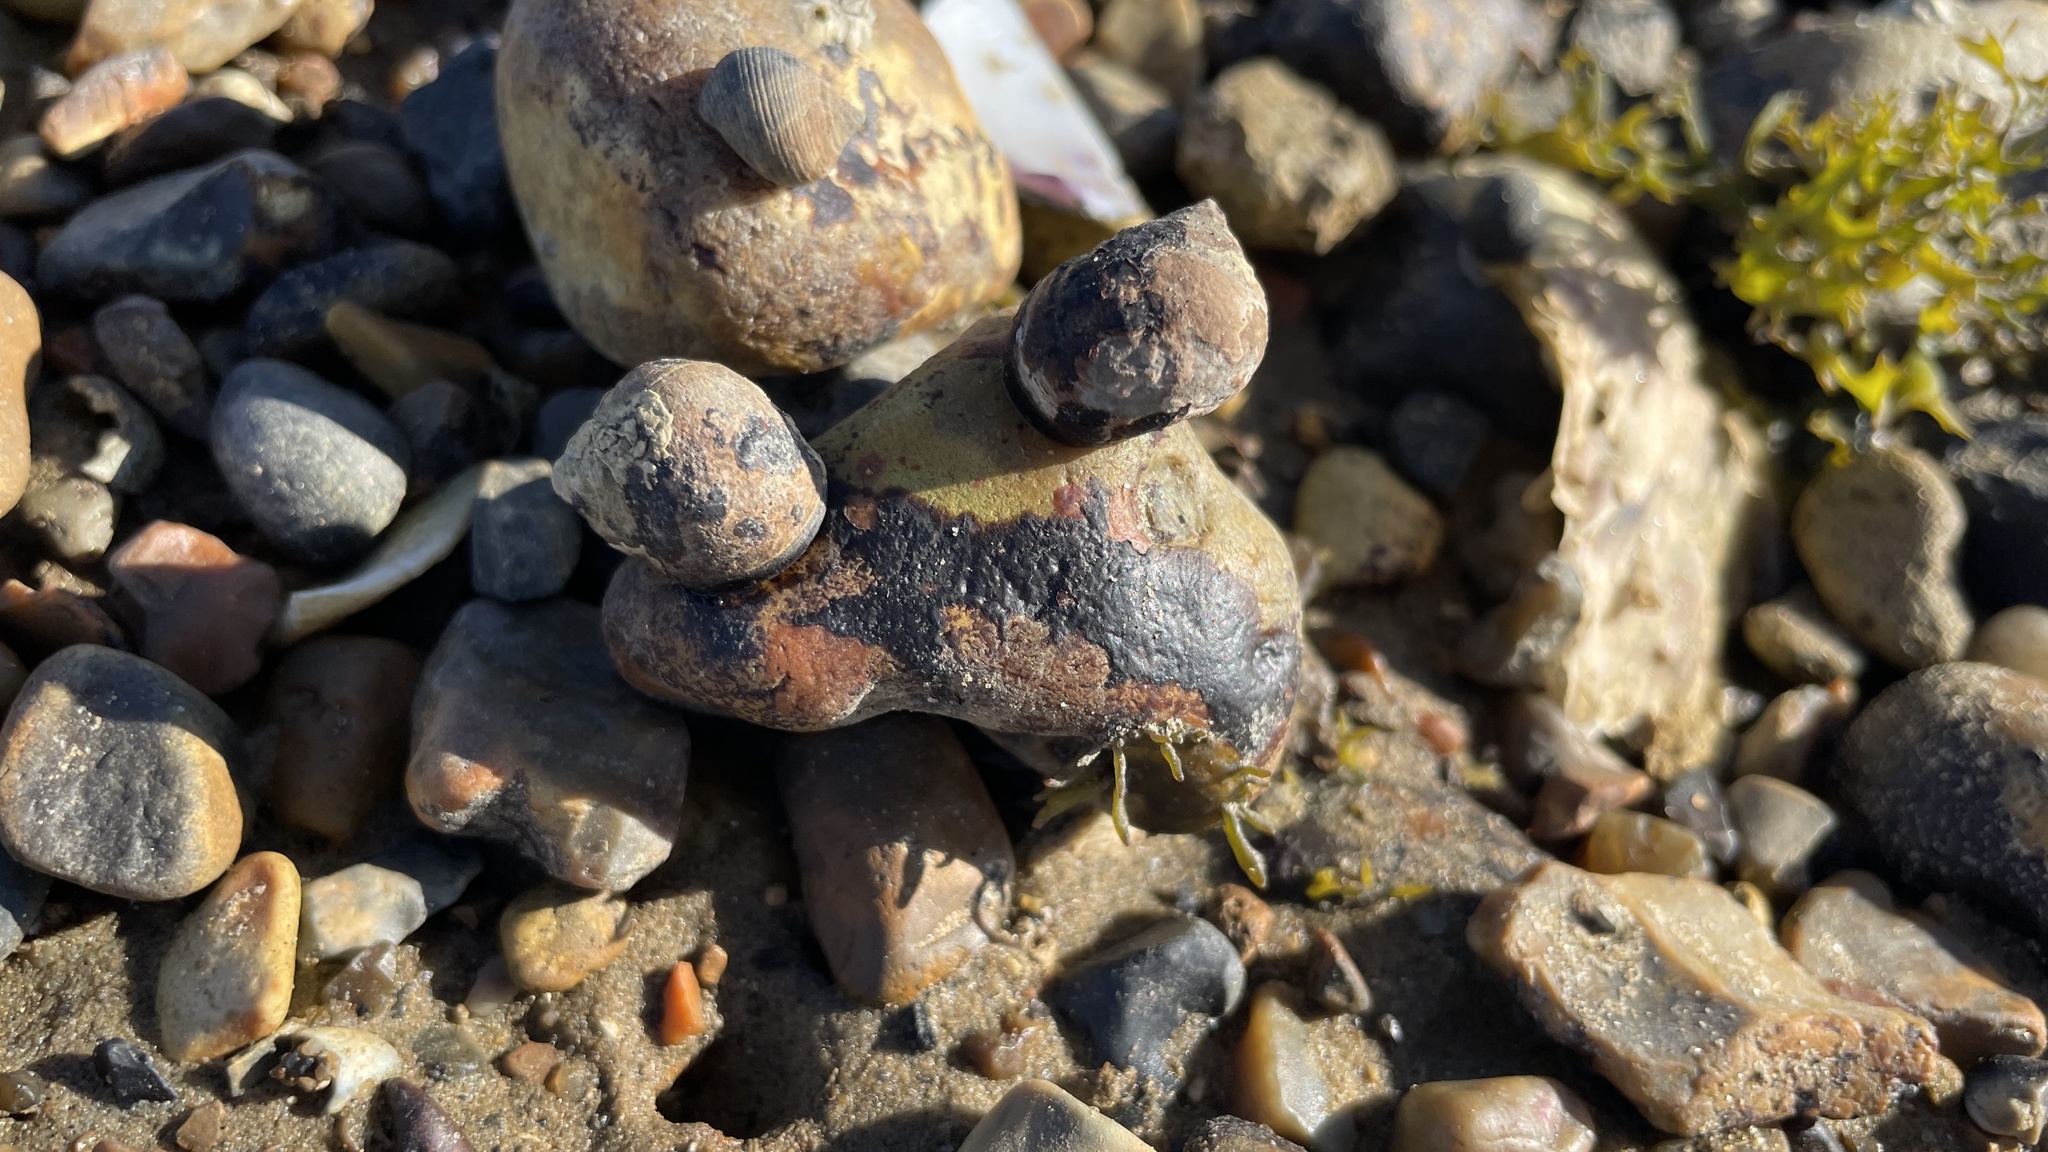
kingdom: Animalia
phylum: Mollusca
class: Gastropoda
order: Littorinimorpha
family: Littorinidae
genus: Littorina
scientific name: Littorina littorea
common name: Common periwinkle
